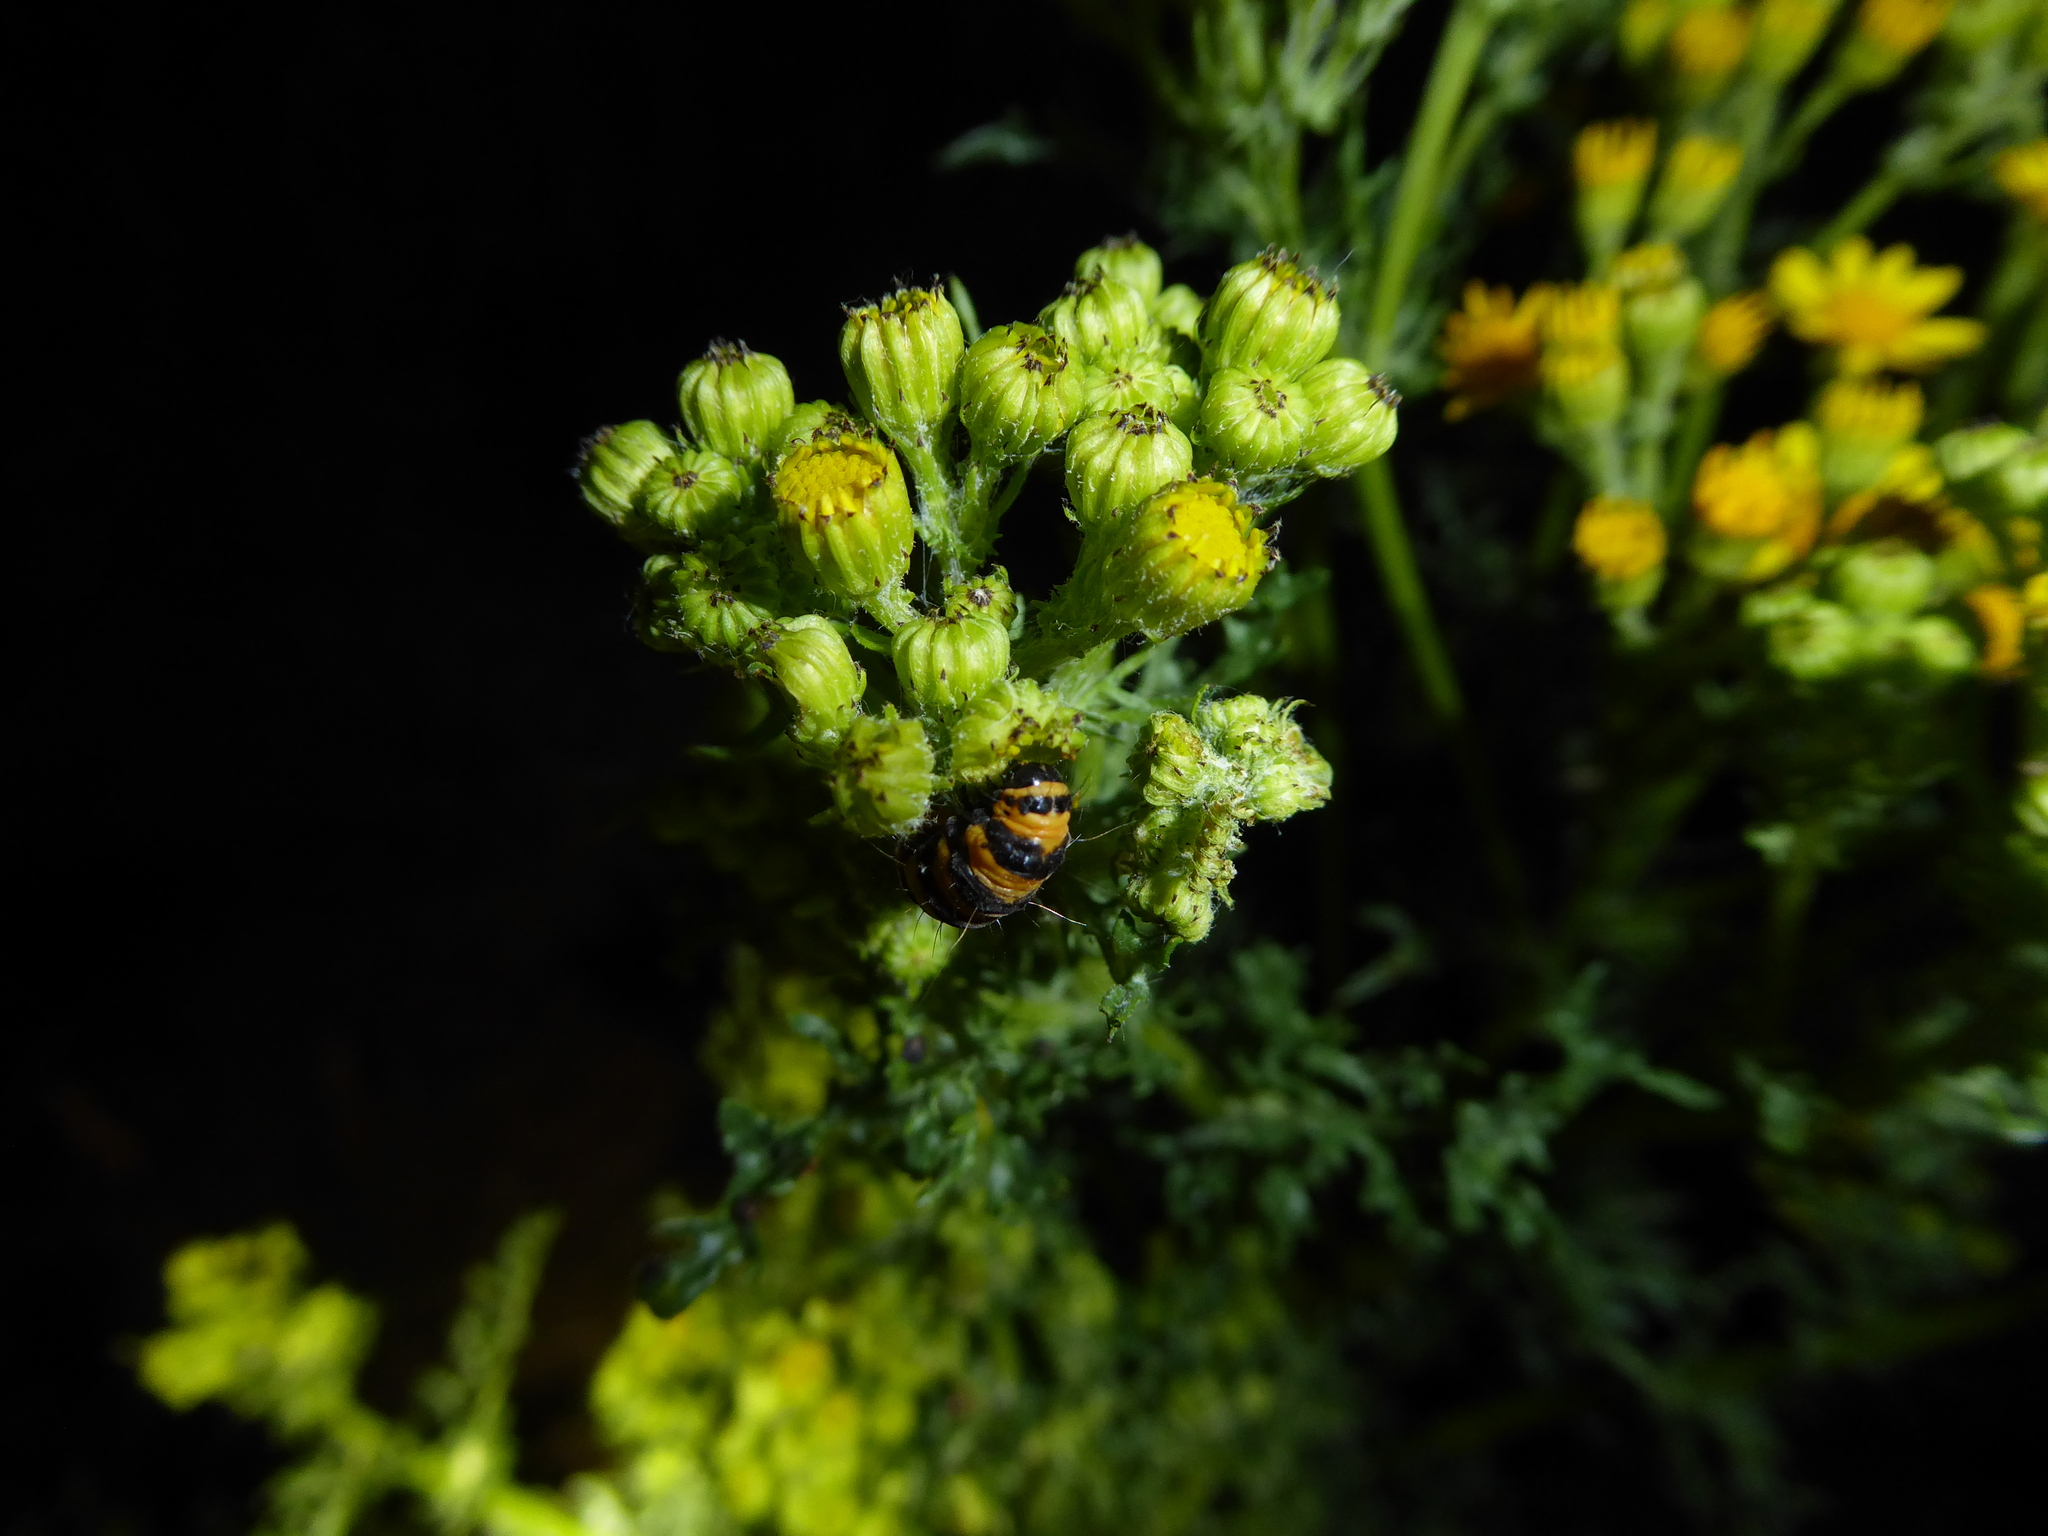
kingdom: Animalia
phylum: Arthropoda
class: Insecta
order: Lepidoptera
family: Erebidae
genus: Tyria
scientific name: Tyria jacobaeae
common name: Cinnabar
